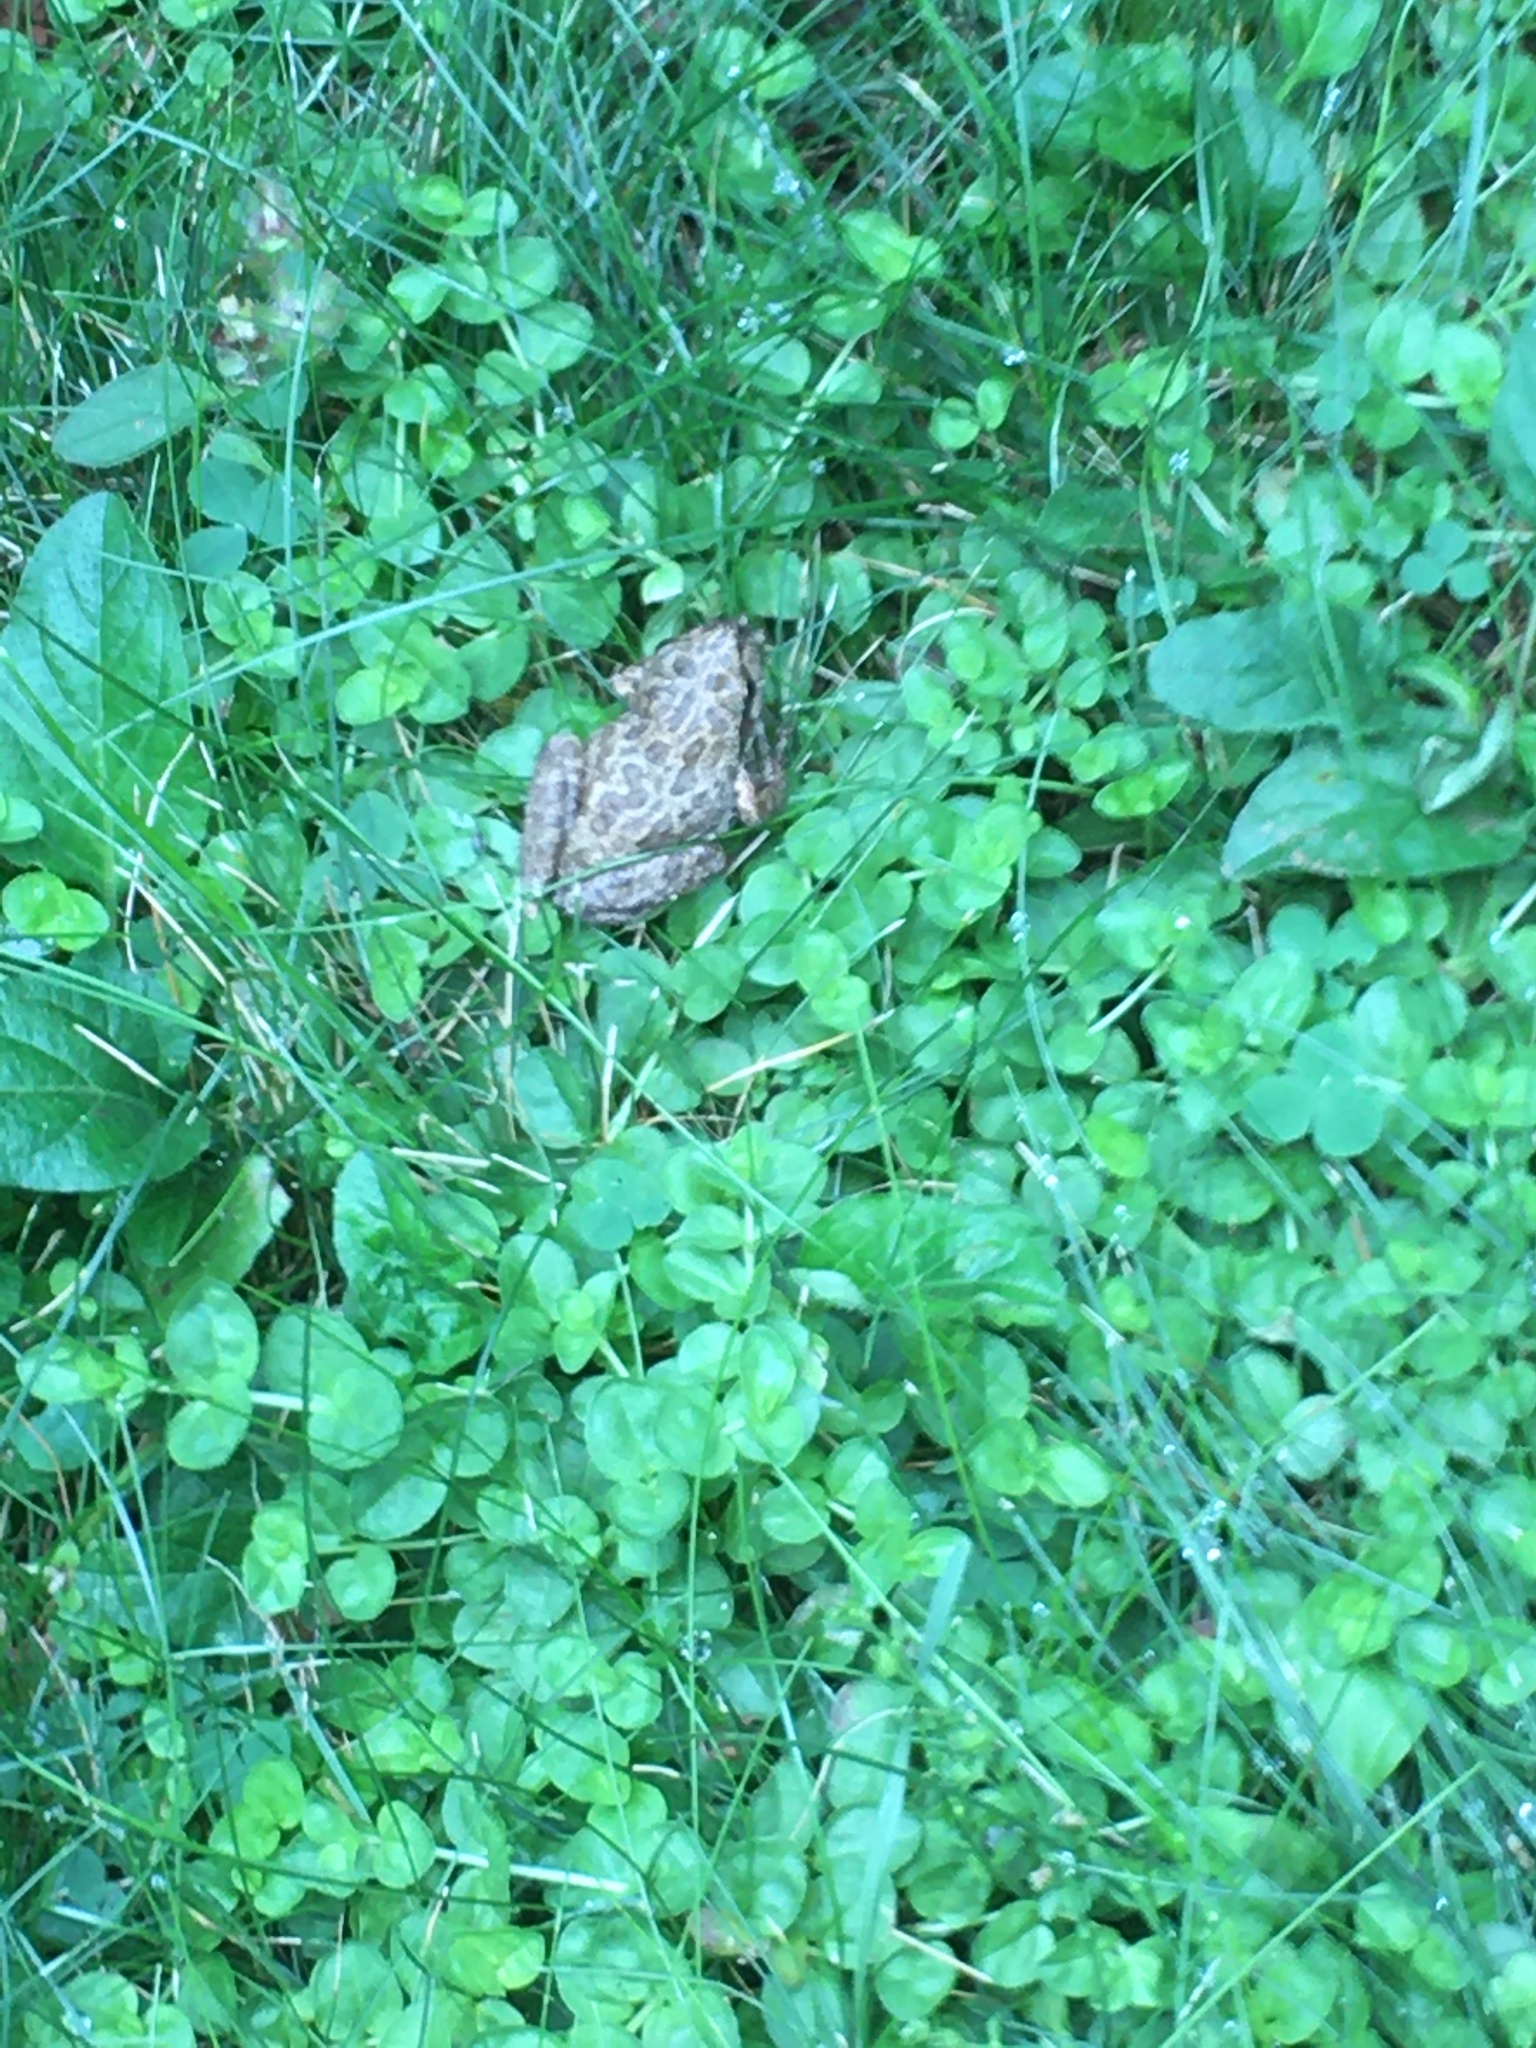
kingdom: Animalia
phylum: Chordata
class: Amphibia
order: Anura
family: Hylidae
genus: Pseudacris
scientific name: Pseudacris regilla
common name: Pacific chorus frog
